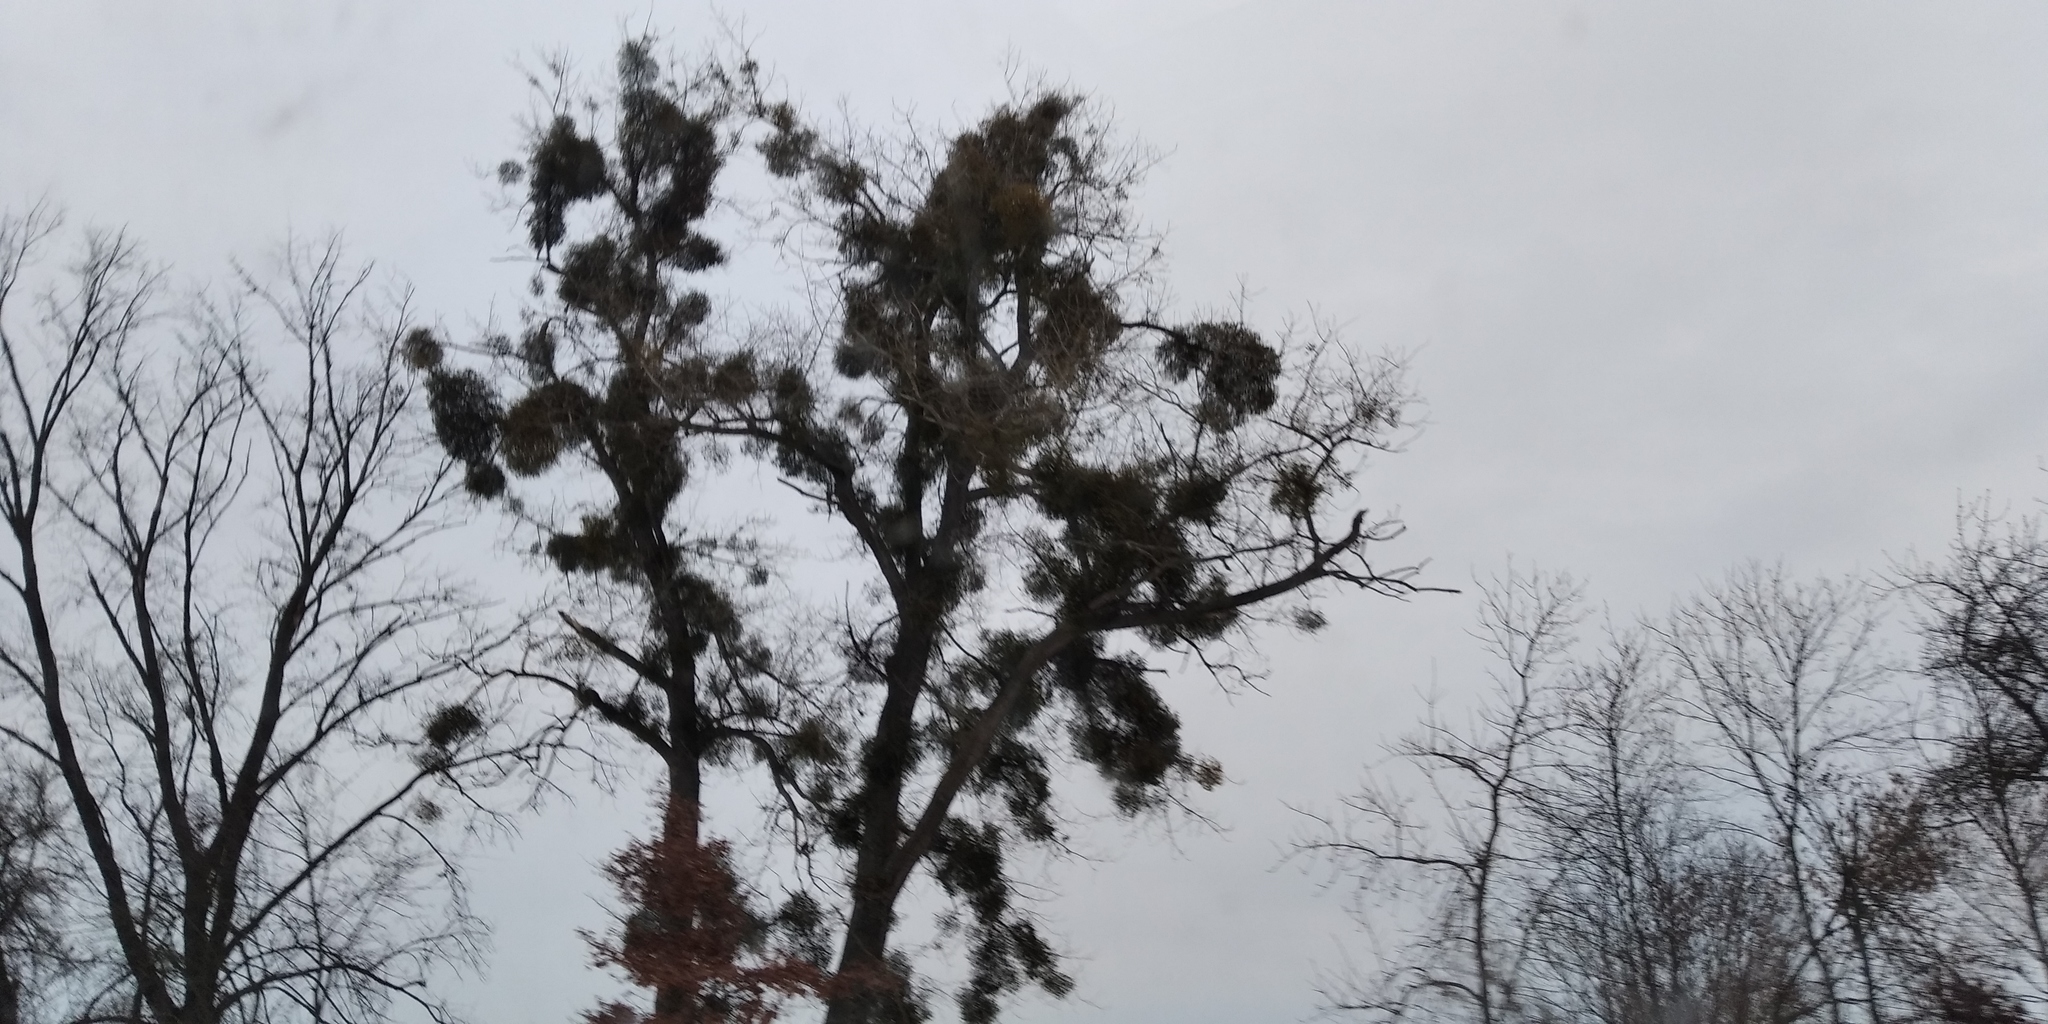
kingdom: Plantae
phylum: Tracheophyta
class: Magnoliopsida
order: Santalales
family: Viscaceae
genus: Viscum
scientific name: Viscum album
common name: Mistletoe
